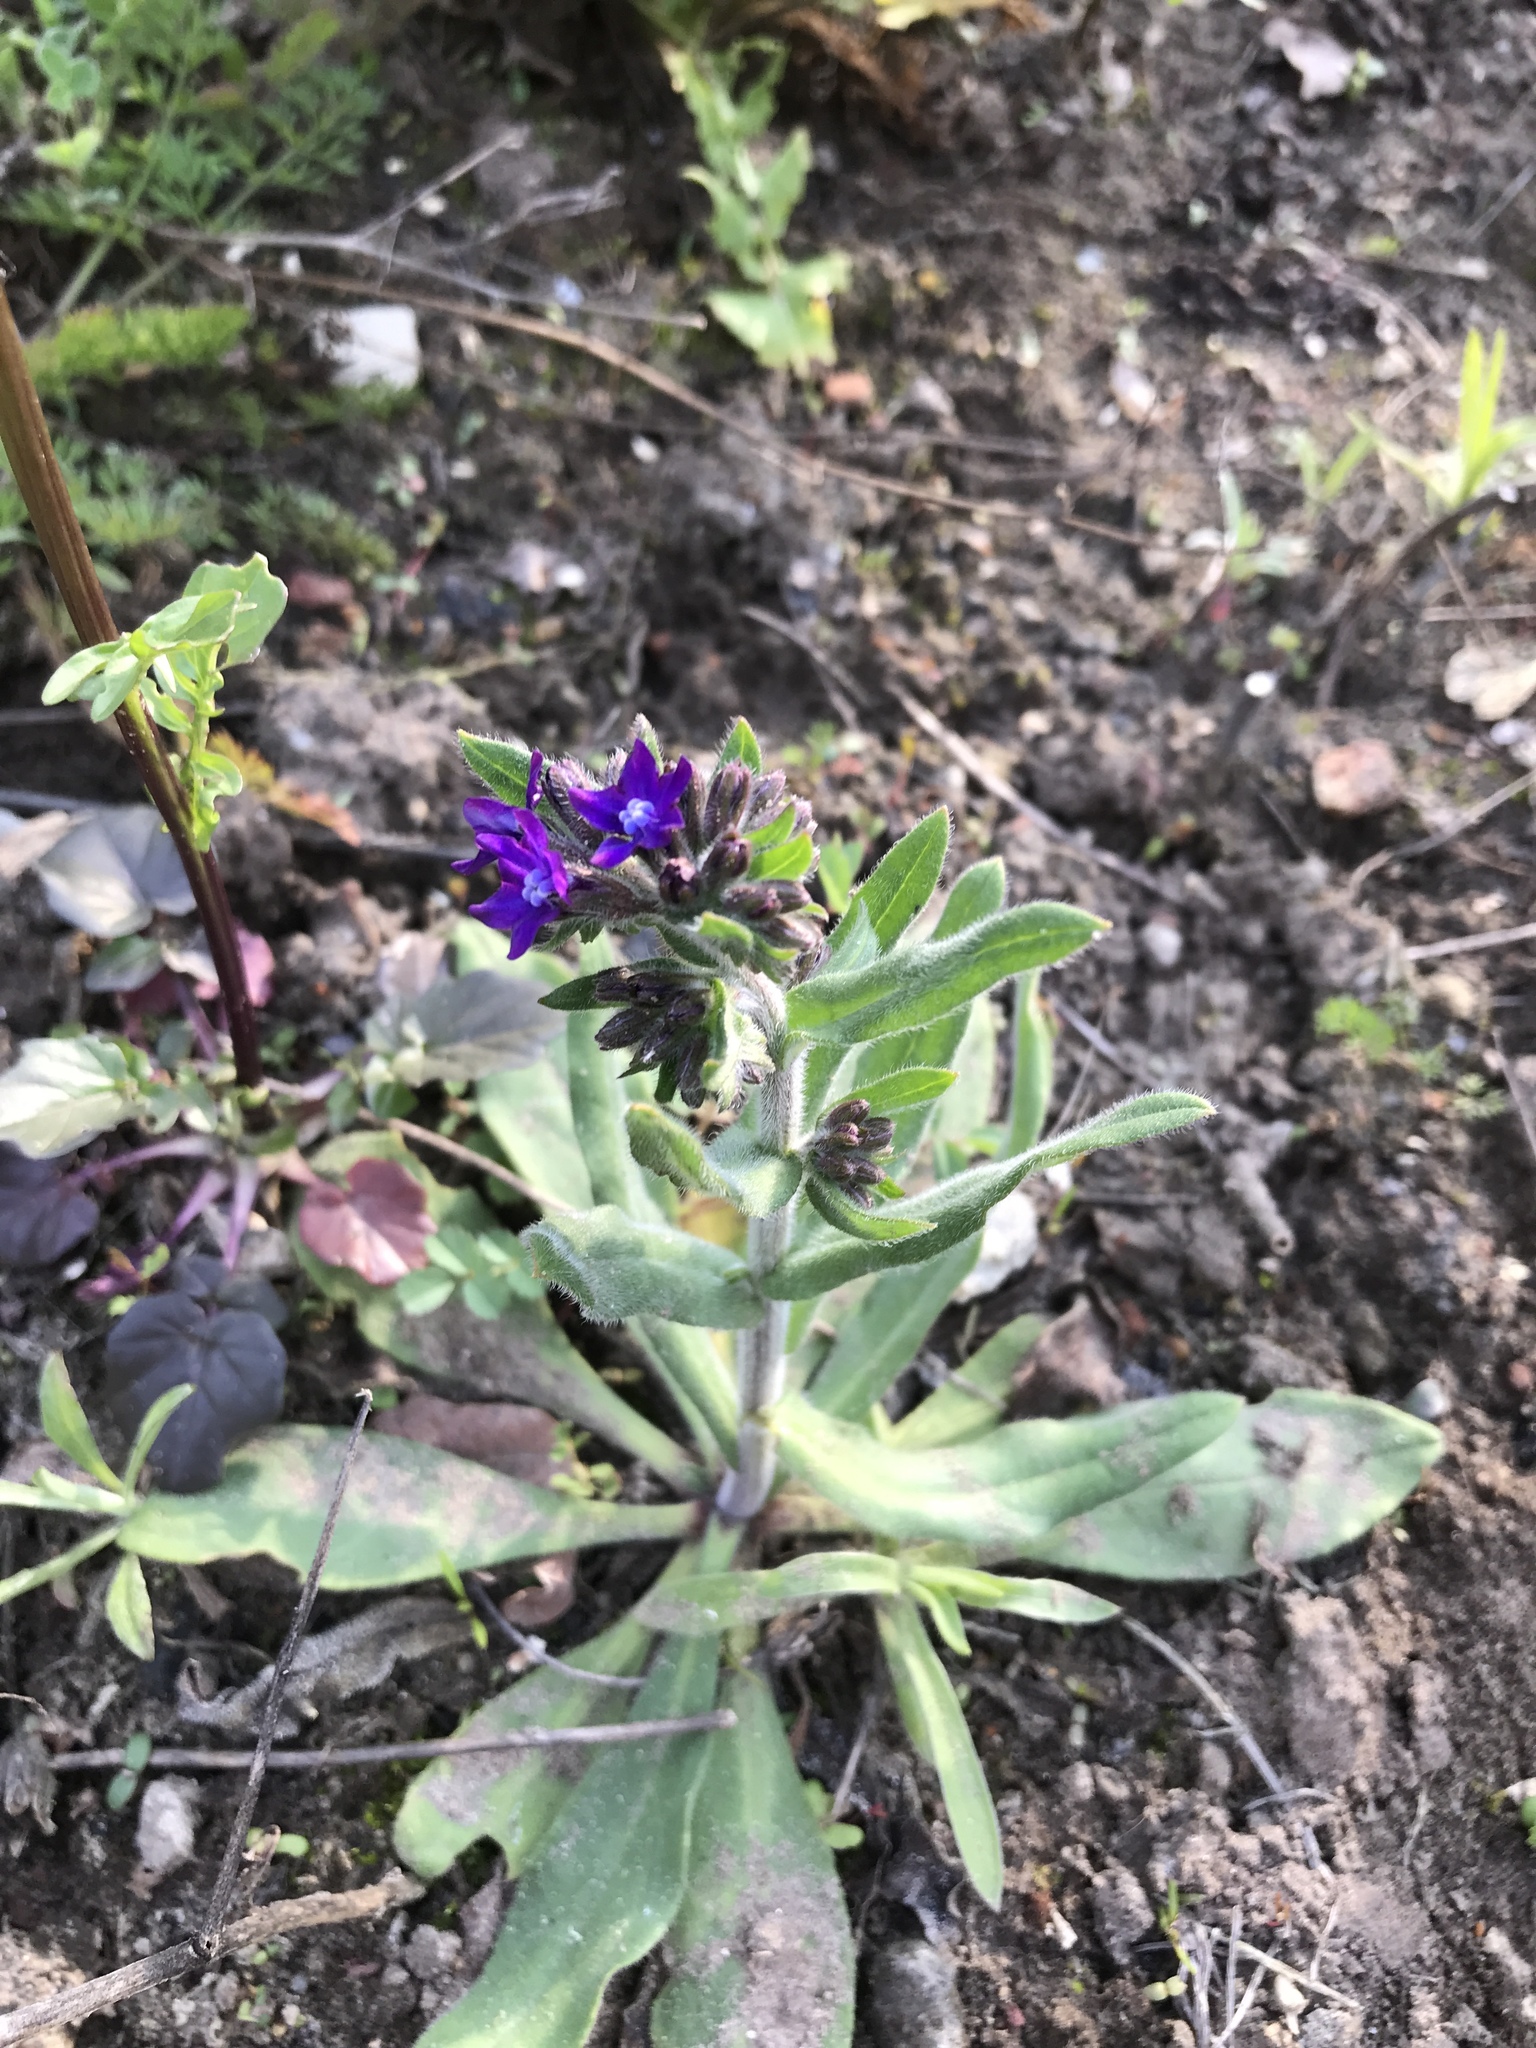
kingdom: Plantae
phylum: Tracheophyta
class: Magnoliopsida
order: Boraginales
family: Boraginaceae
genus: Anchusa
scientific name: Anchusa officinalis
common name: Alkanet
